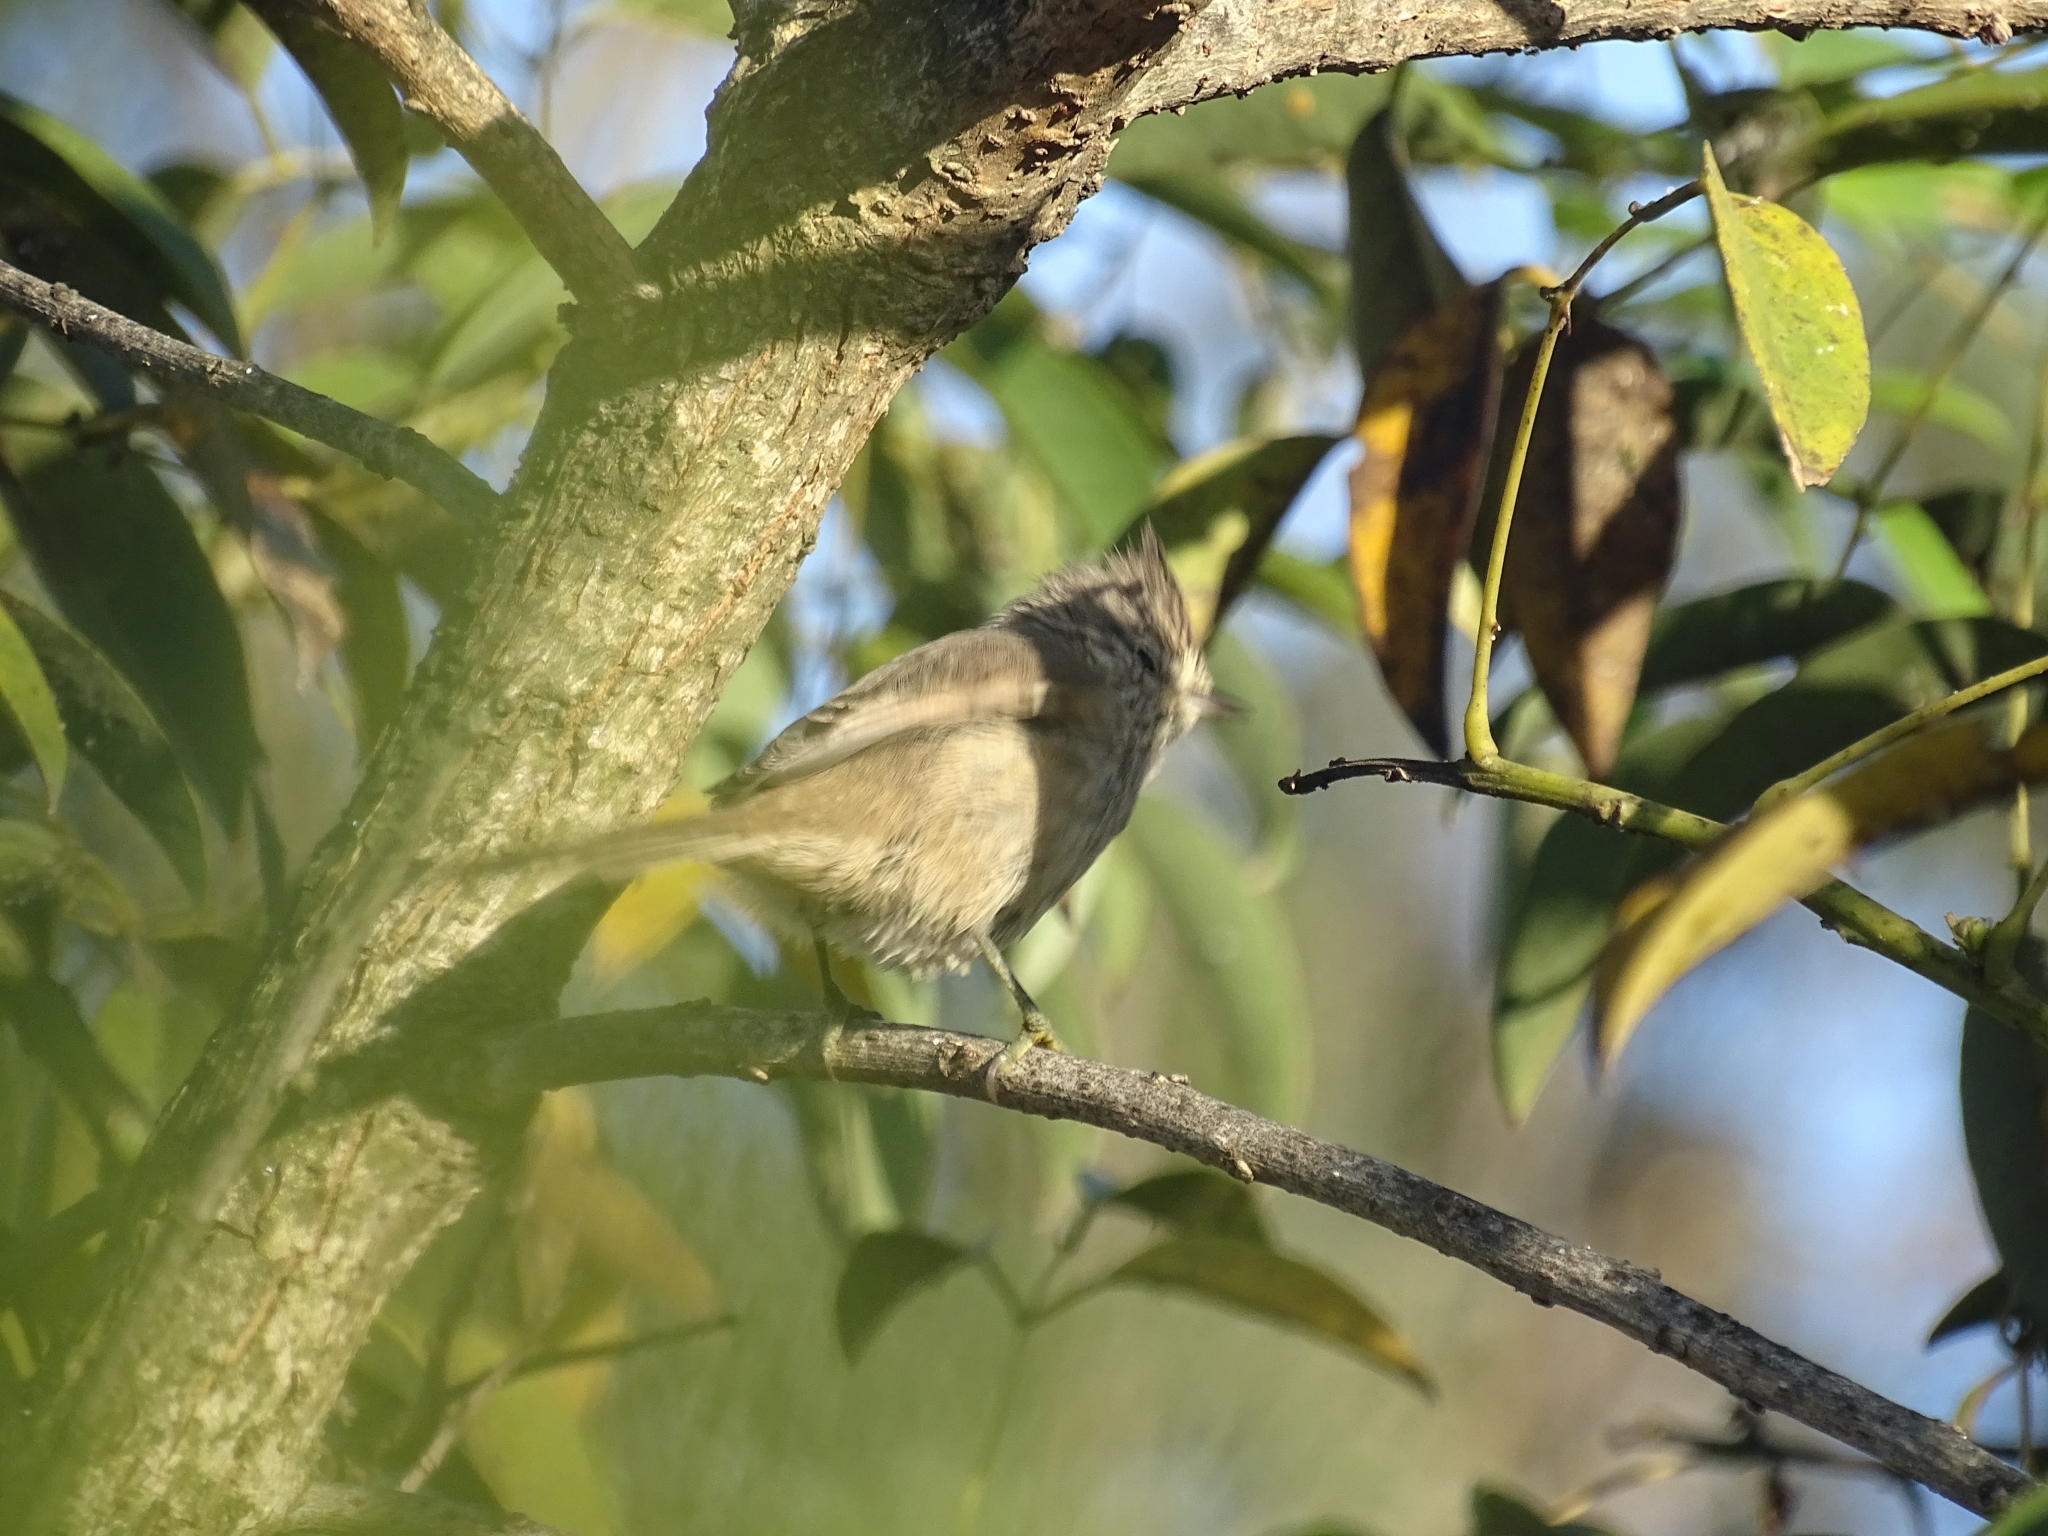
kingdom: Animalia
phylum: Chordata
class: Aves
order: Passeriformes
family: Furnariidae
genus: Leptasthenura
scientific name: Leptasthenura platensis
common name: Tufted tit-spinetail
